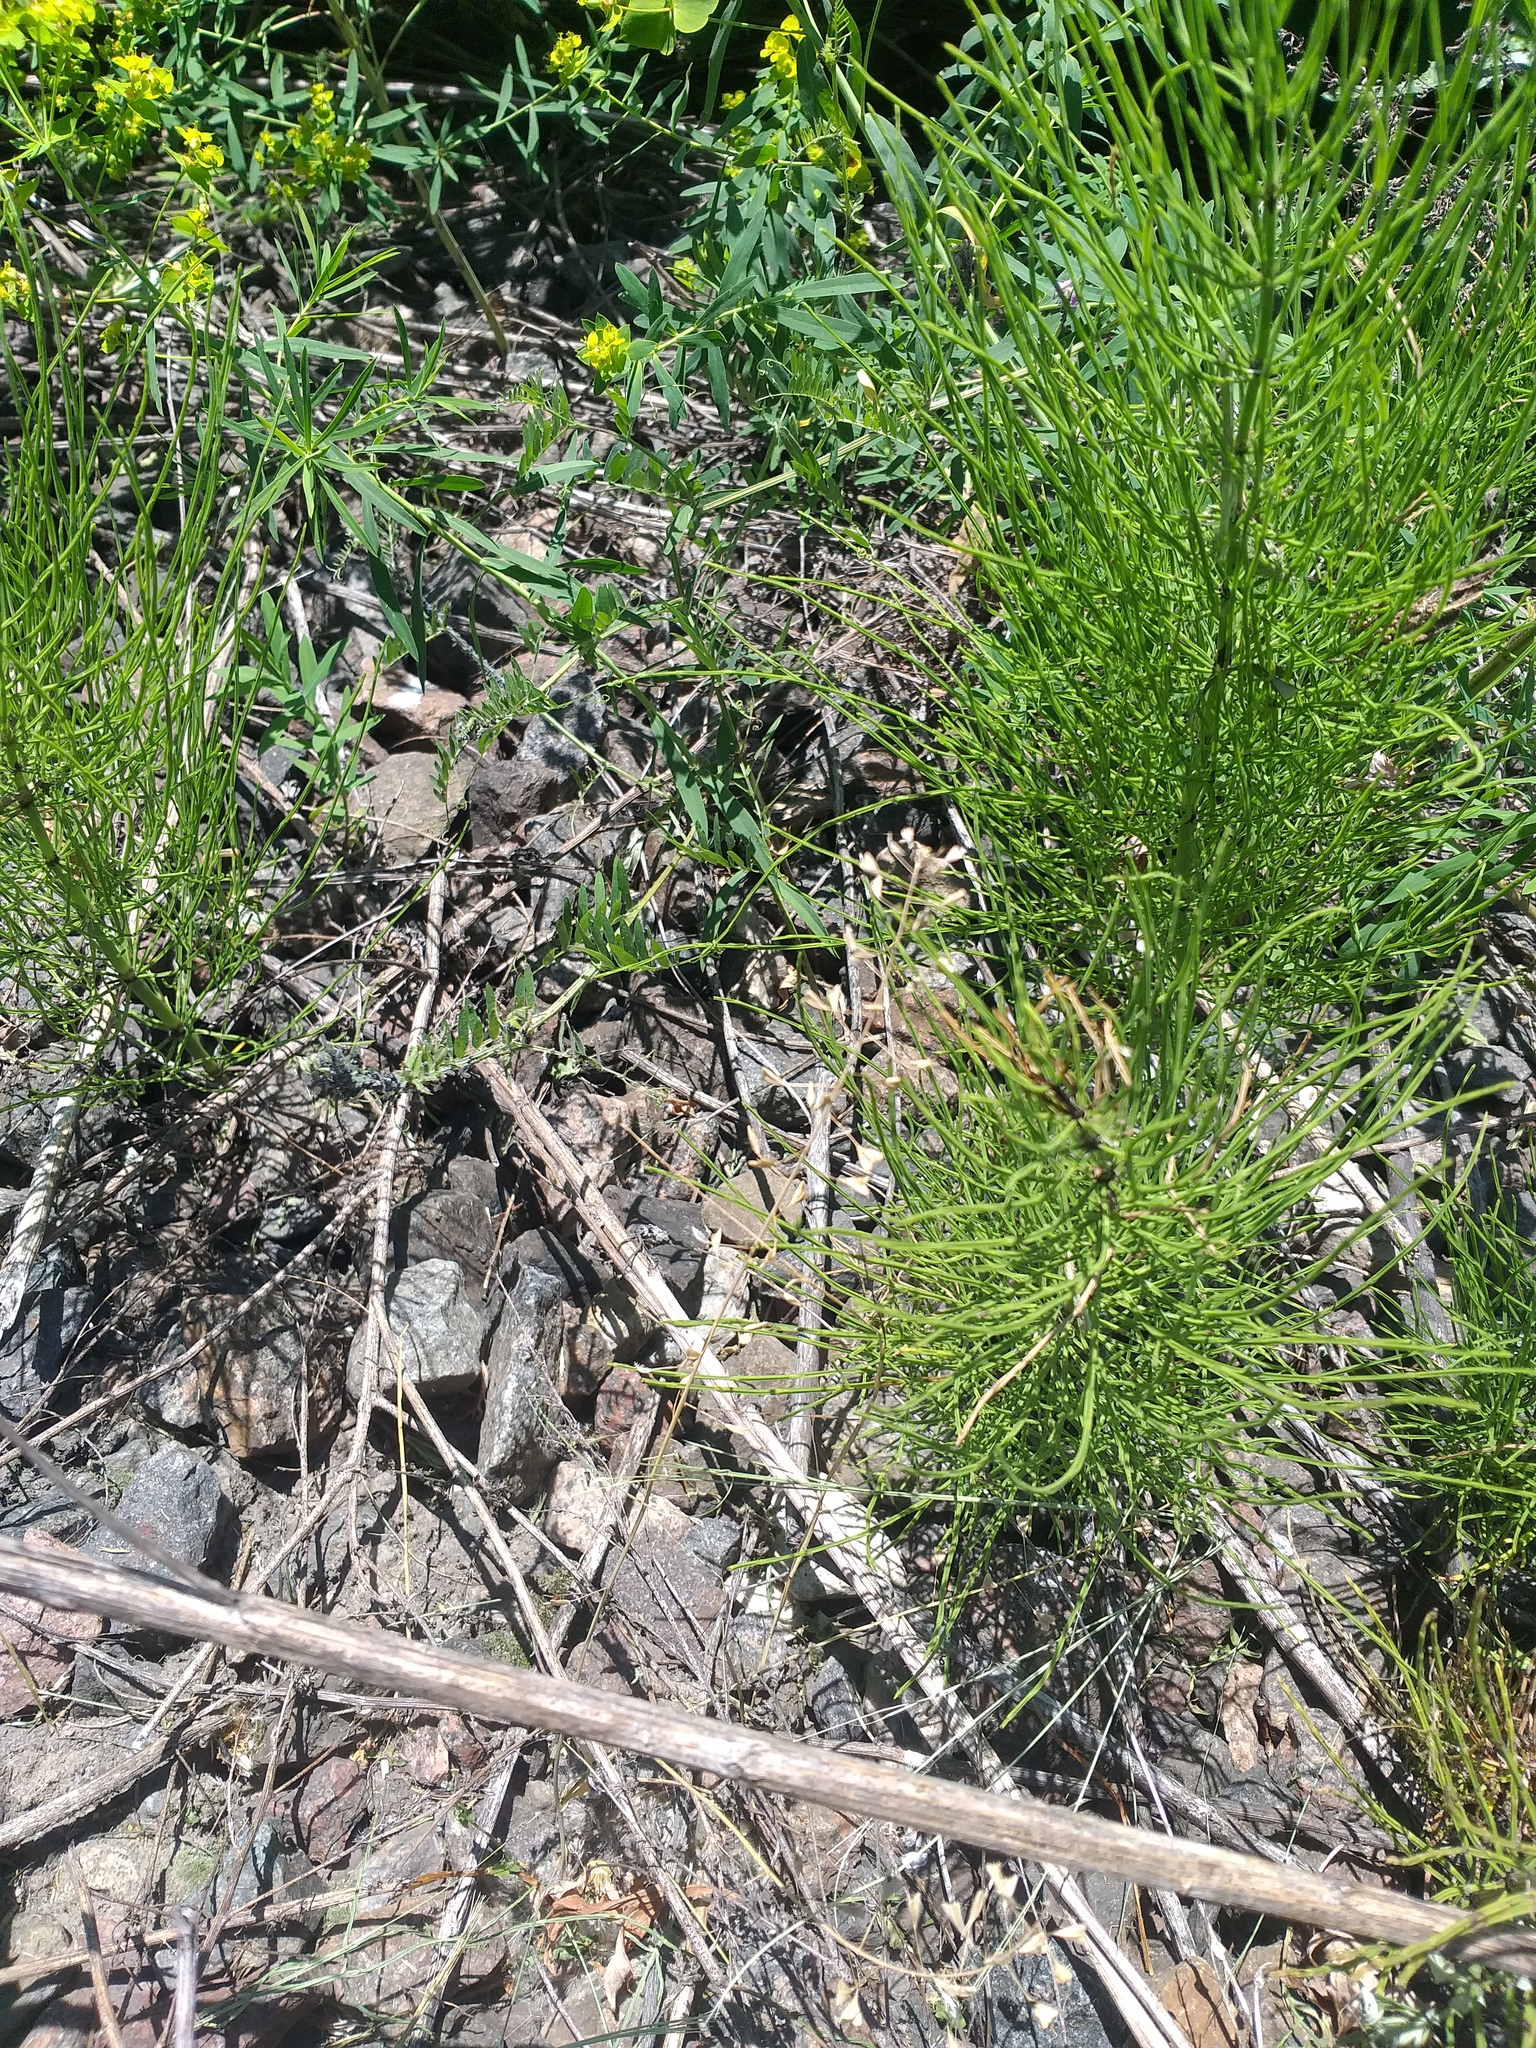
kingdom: Plantae
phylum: Tracheophyta
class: Polypodiopsida
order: Equisetales
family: Equisetaceae
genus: Equisetum
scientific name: Equisetum arvense
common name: Field horsetail
